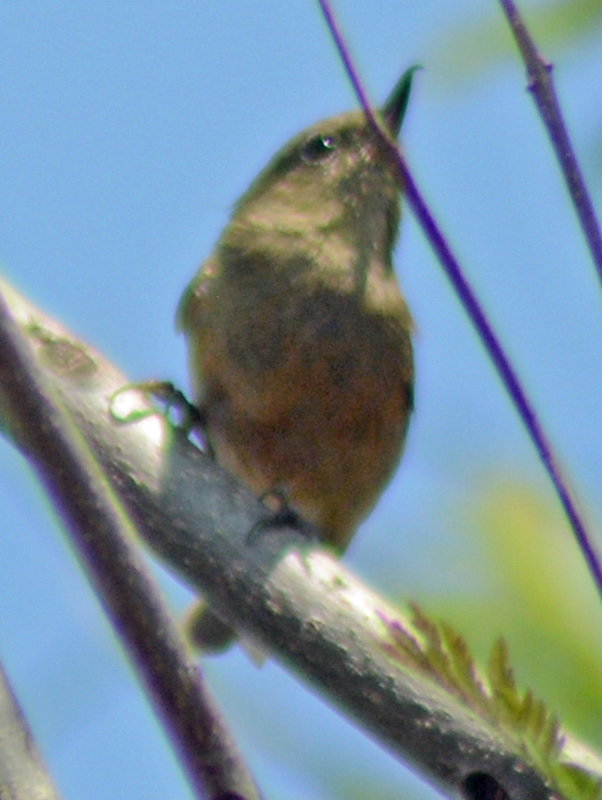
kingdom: Animalia
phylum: Chordata
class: Aves
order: Passeriformes
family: Thraupidae
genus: Diglossa
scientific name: Diglossa baritula
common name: Cinnamon-bellied flowerpiercer
